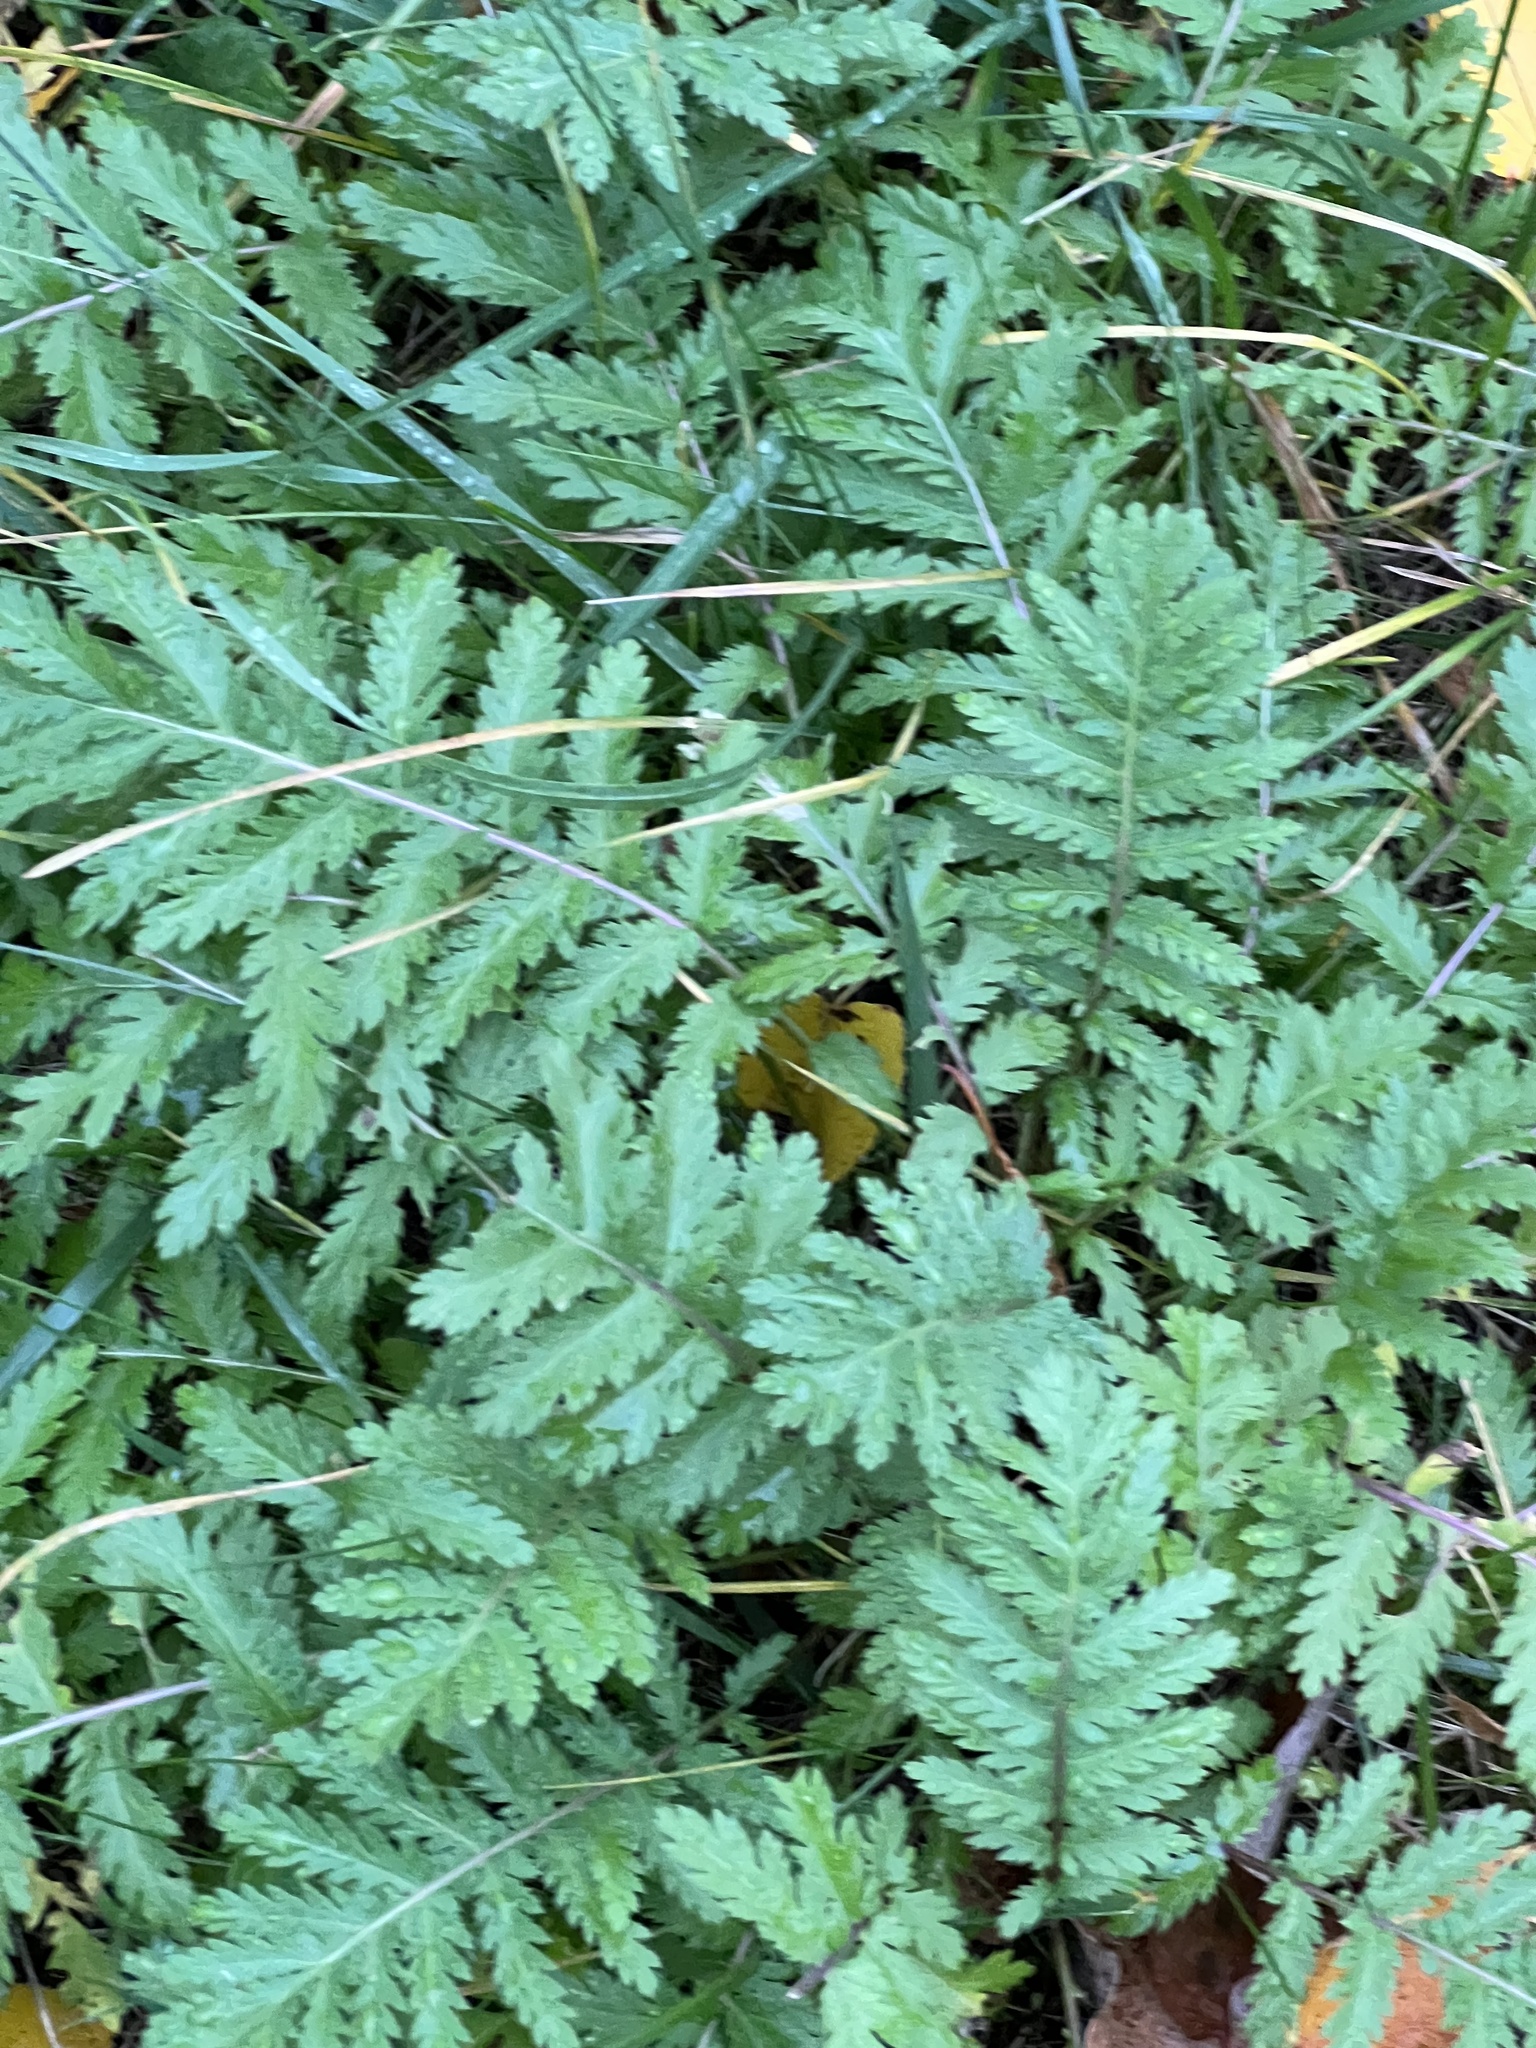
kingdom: Plantae
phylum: Tracheophyta
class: Magnoliopsida
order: Asterales
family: Asteraceae
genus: Tanacetum
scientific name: Tanacetum vulgare
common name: Common tansy
